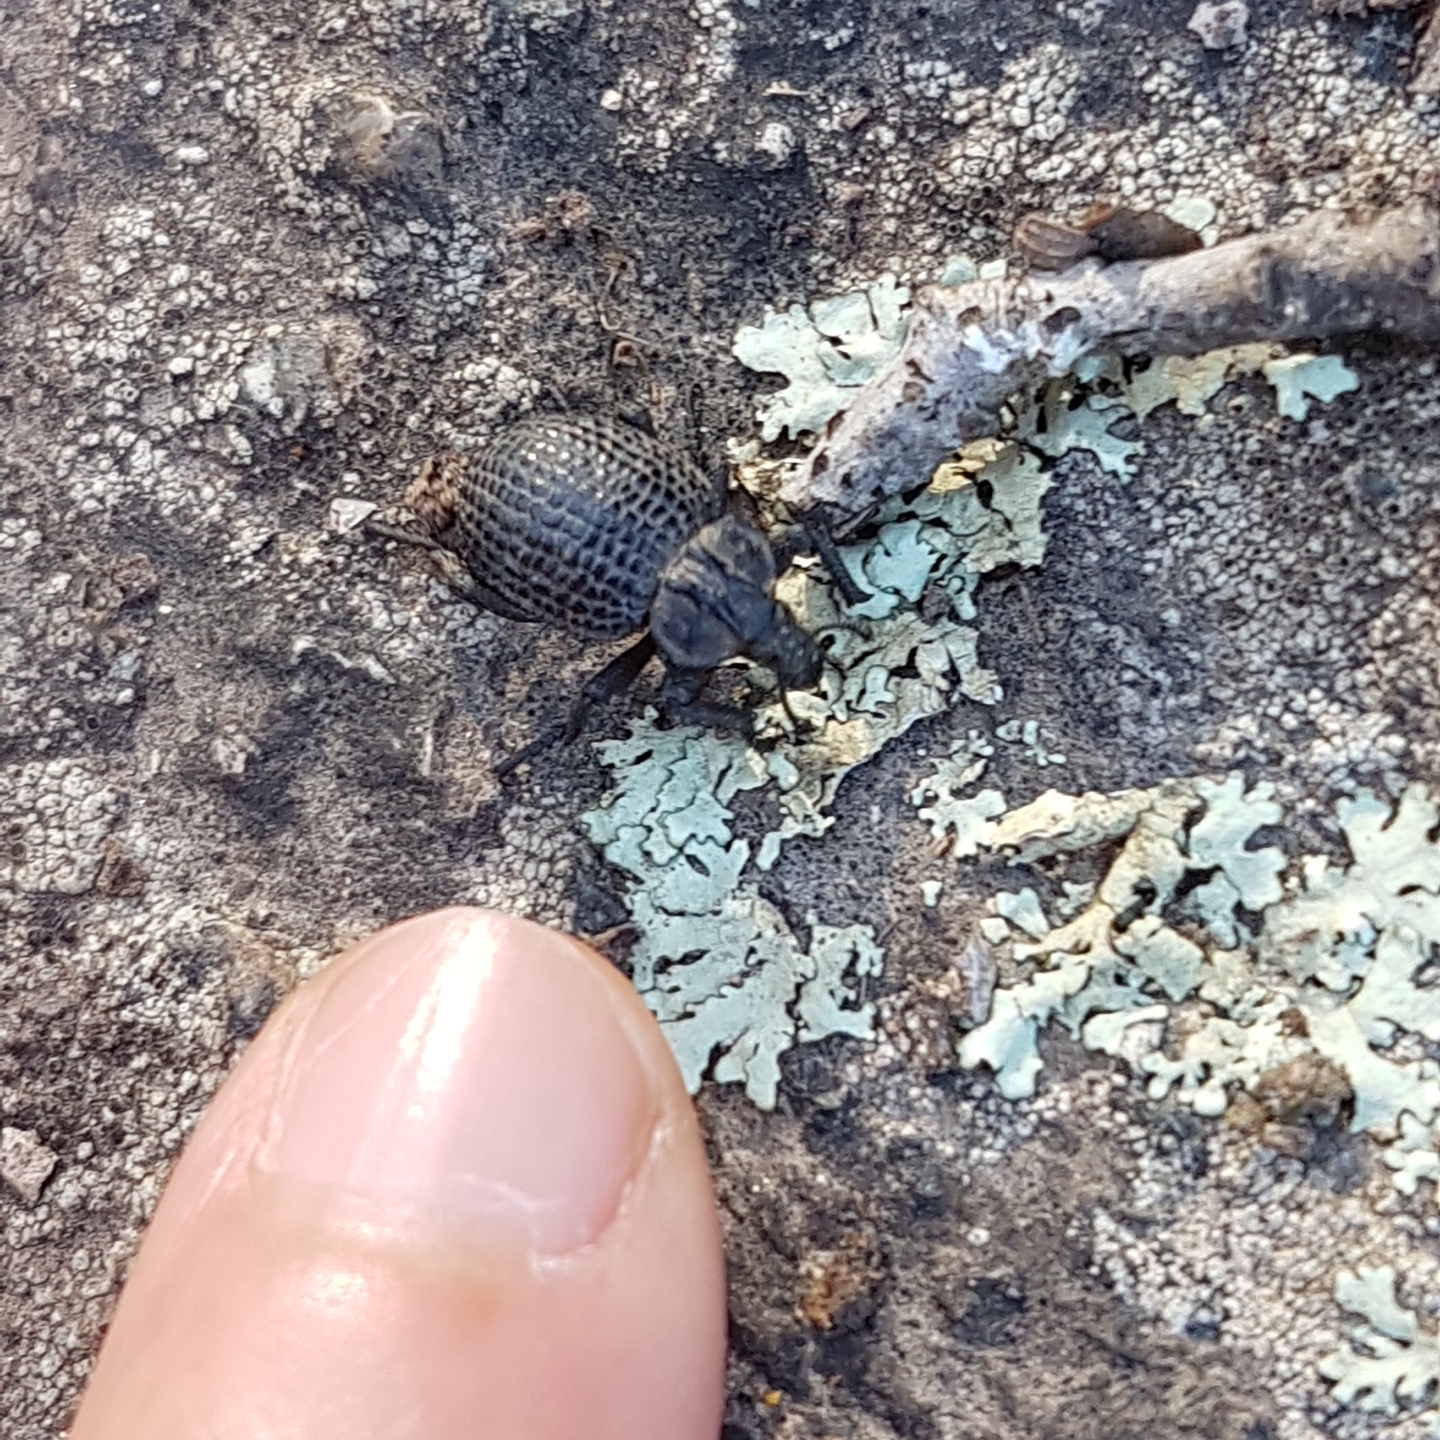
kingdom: Animalia
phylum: Arthropoda
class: Insecta
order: Coleoptera
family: Brachyceridae
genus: Brachycerus
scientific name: Brachycerus rotundicollis
